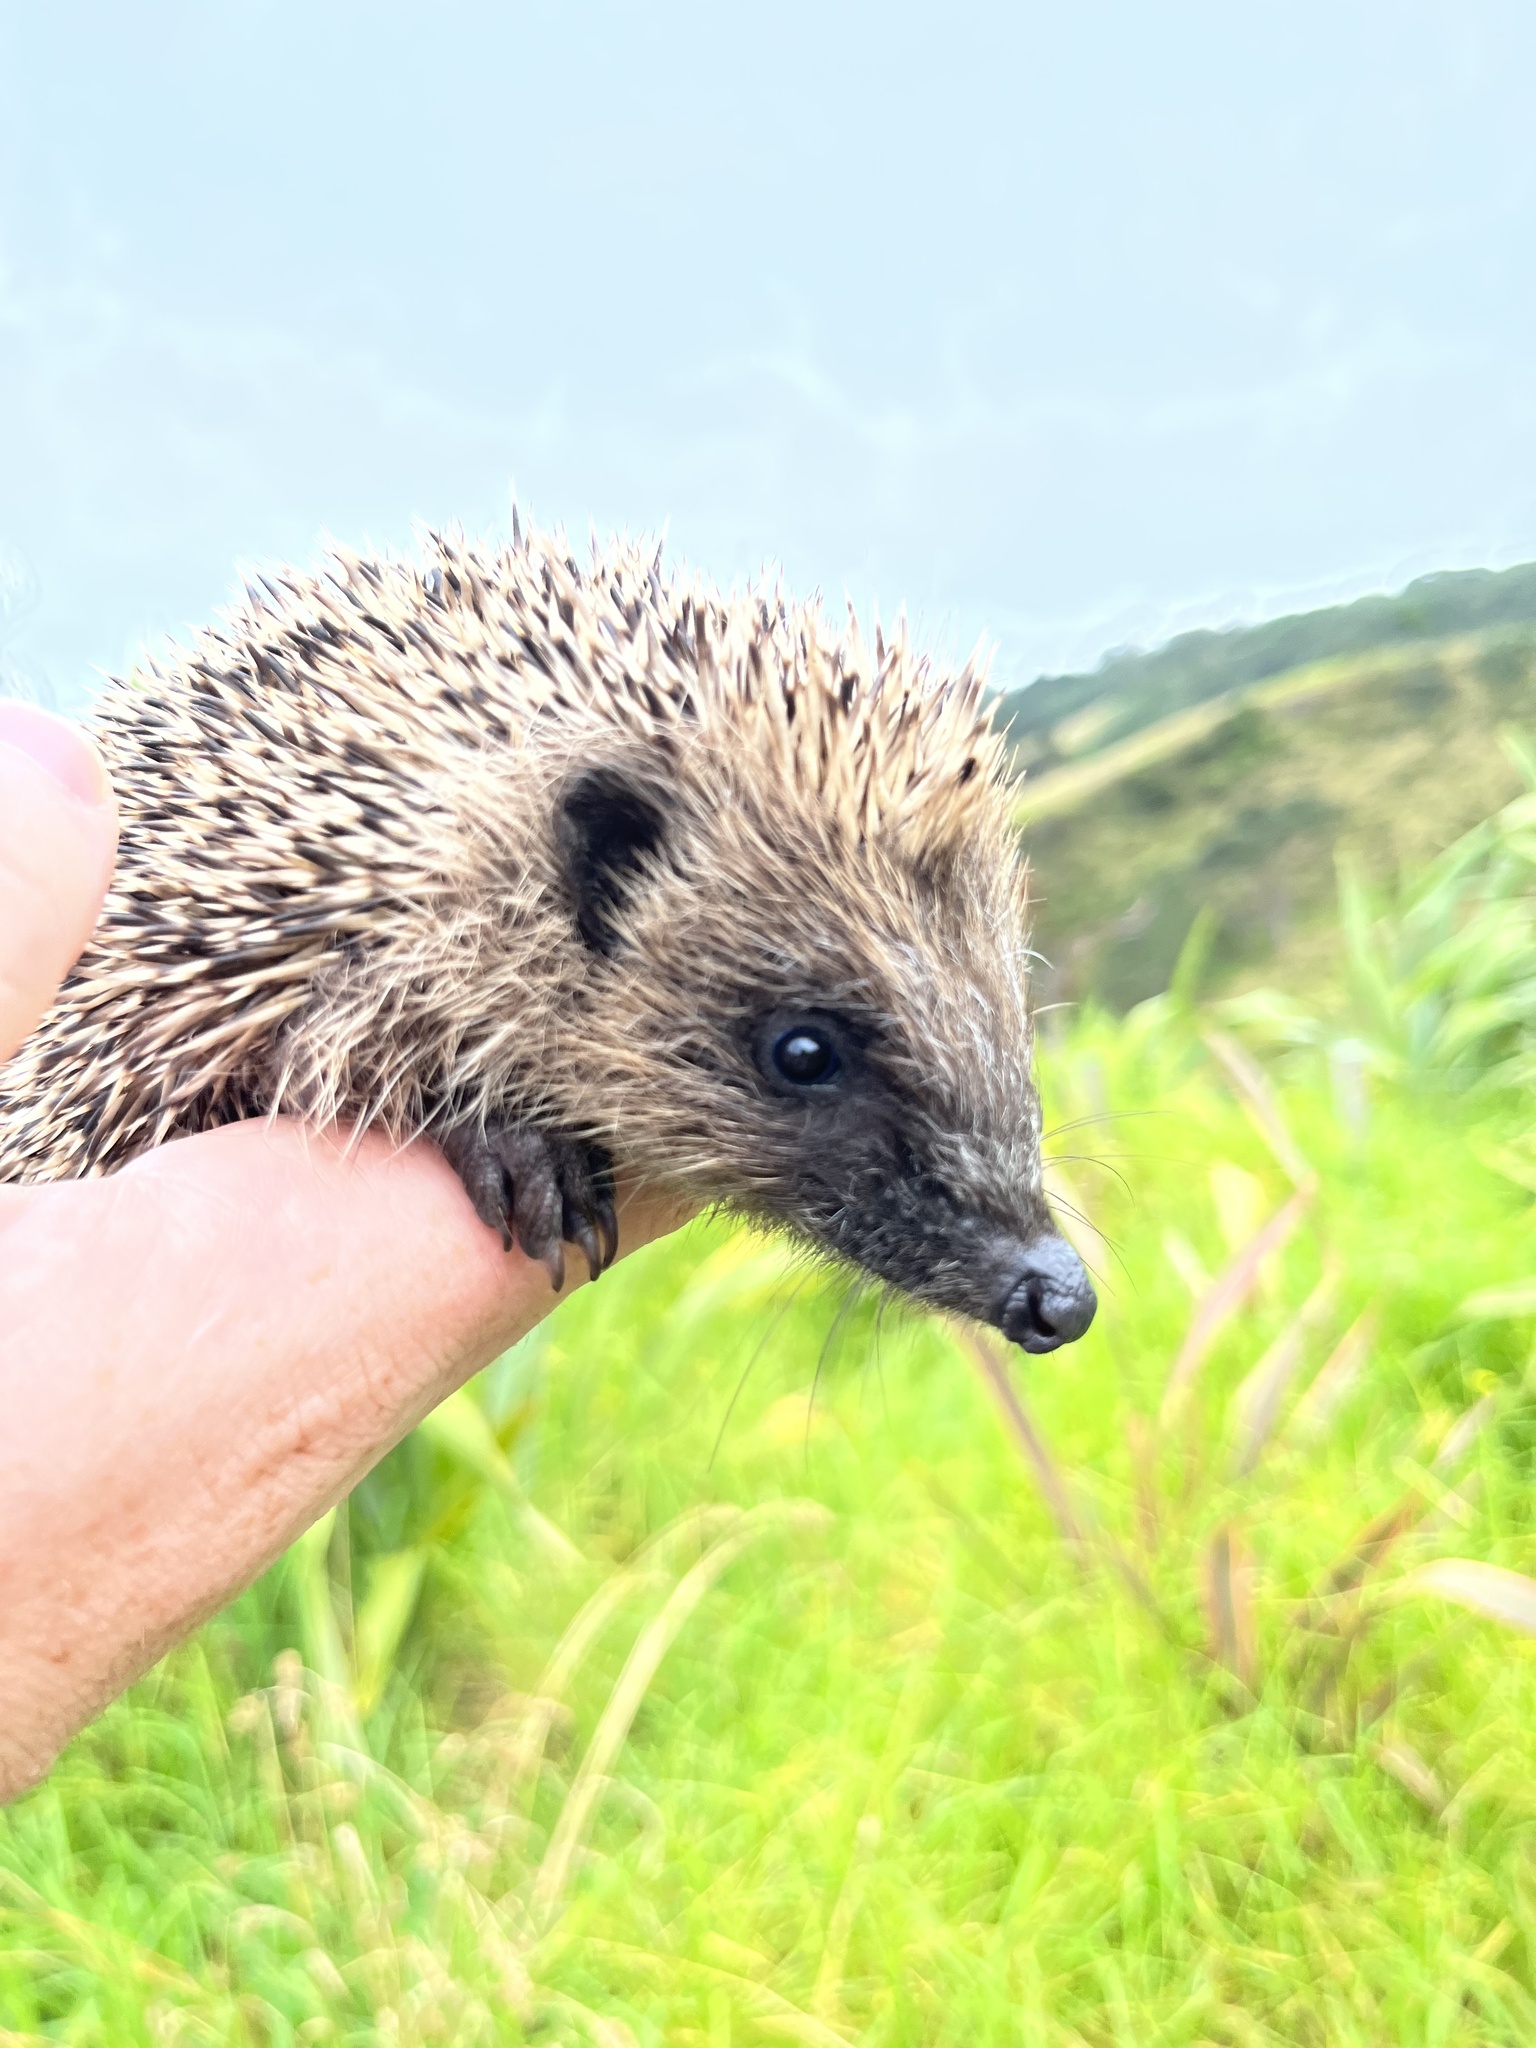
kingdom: Animalia
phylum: Chordata
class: Mammalia
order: Erinaceomorpha
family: Erinaceidae
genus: Erinaceus
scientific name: Erinaceus europaeus
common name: West european hedgehog
